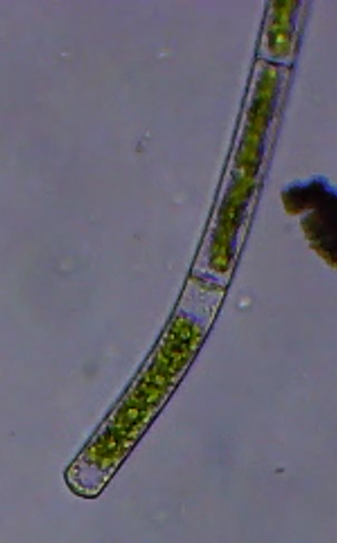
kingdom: Plantae
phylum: Charophyta
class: Zygnematophyceae
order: Zygnematales
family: Zygnemataceae
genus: Mougeotia
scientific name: Mougeotia
